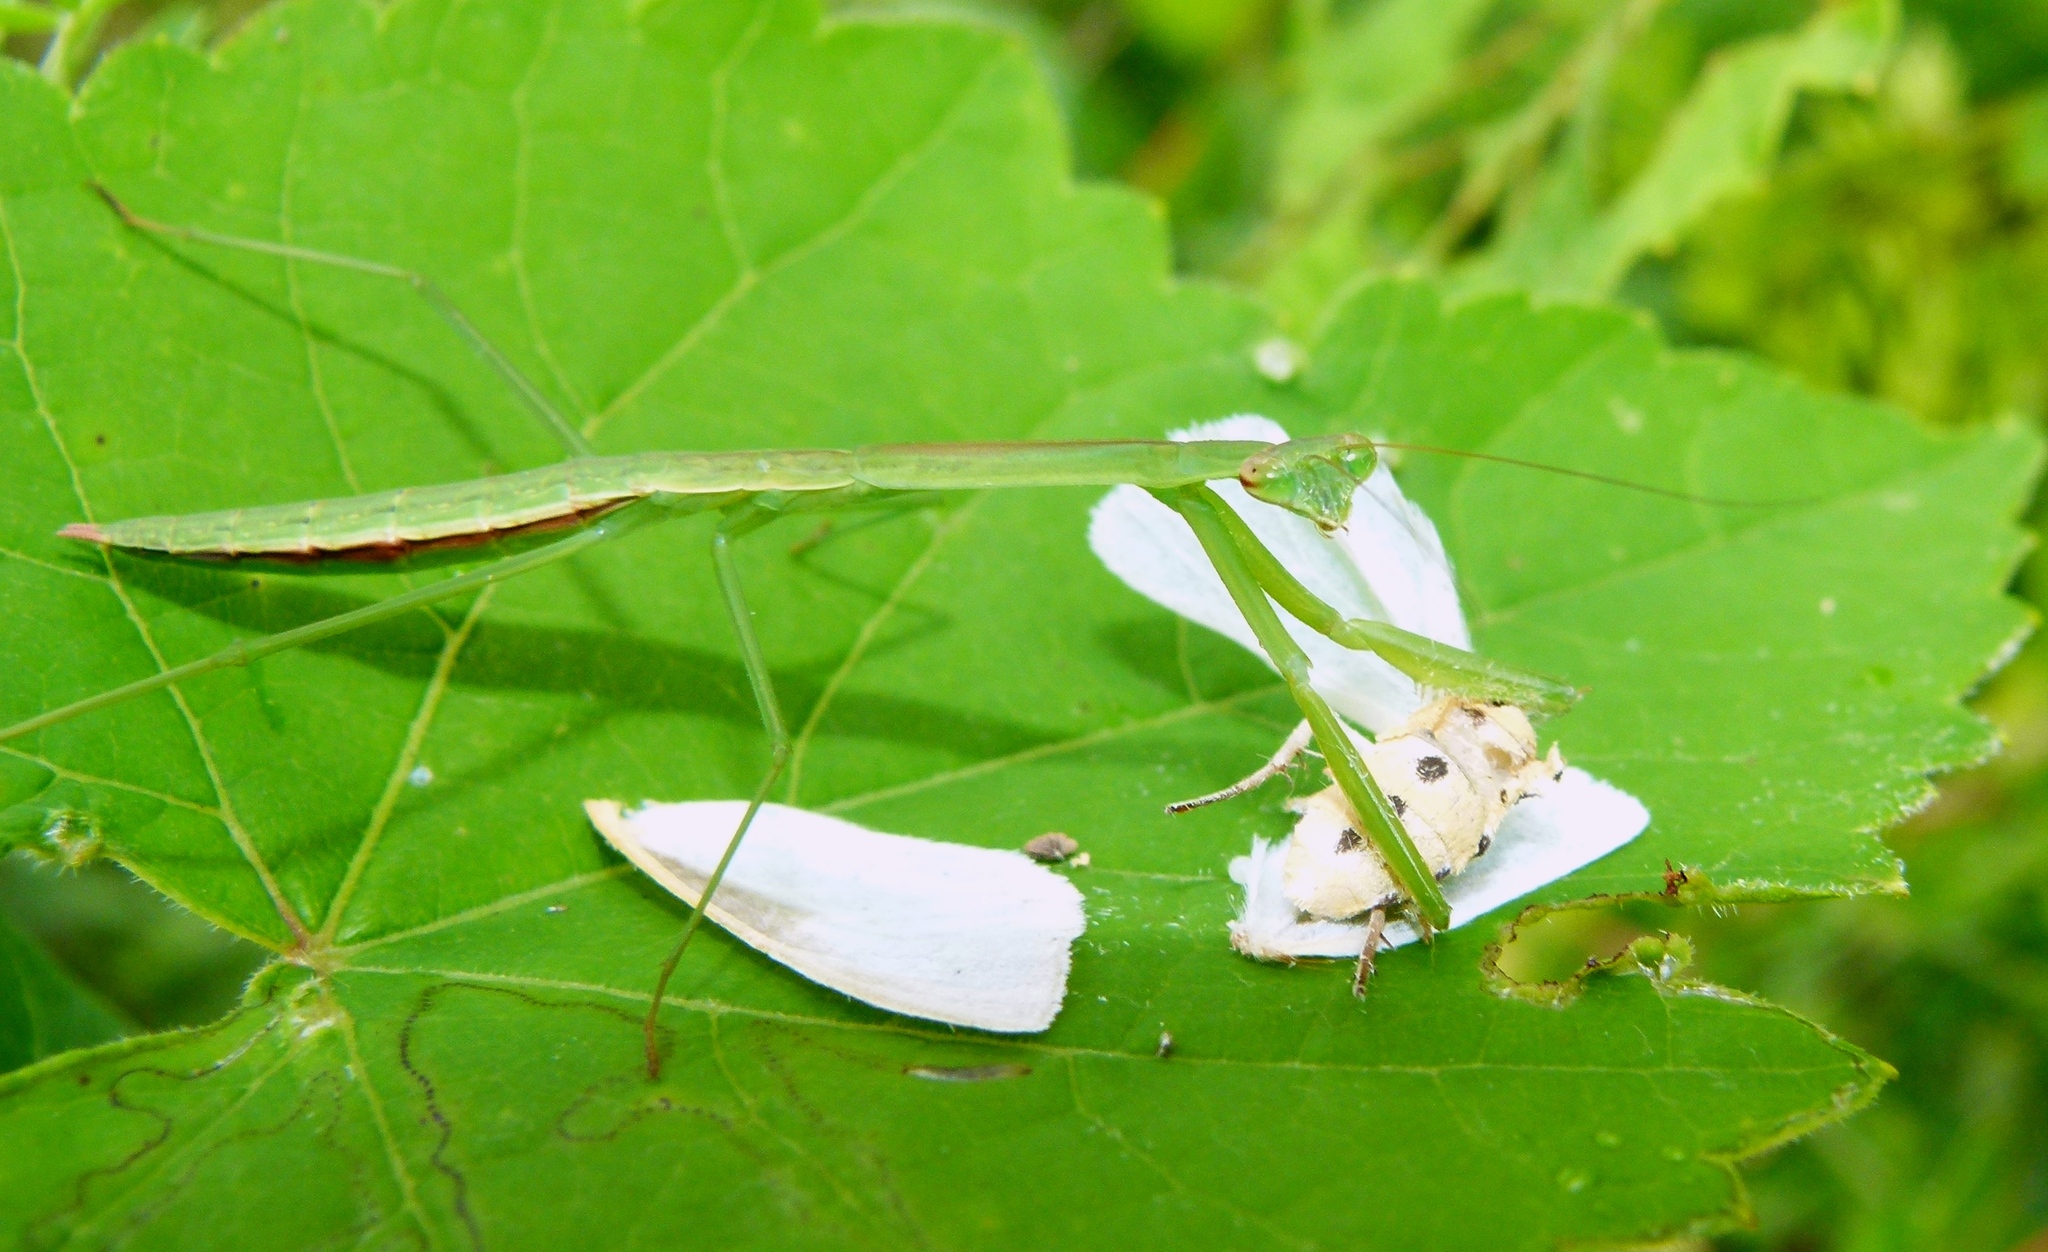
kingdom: Animalia
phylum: Arthropoda
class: Insecta
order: Mantodea
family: Mantidae
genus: Tenodera
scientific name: Tenodera angustipennis
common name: Asian mantis
